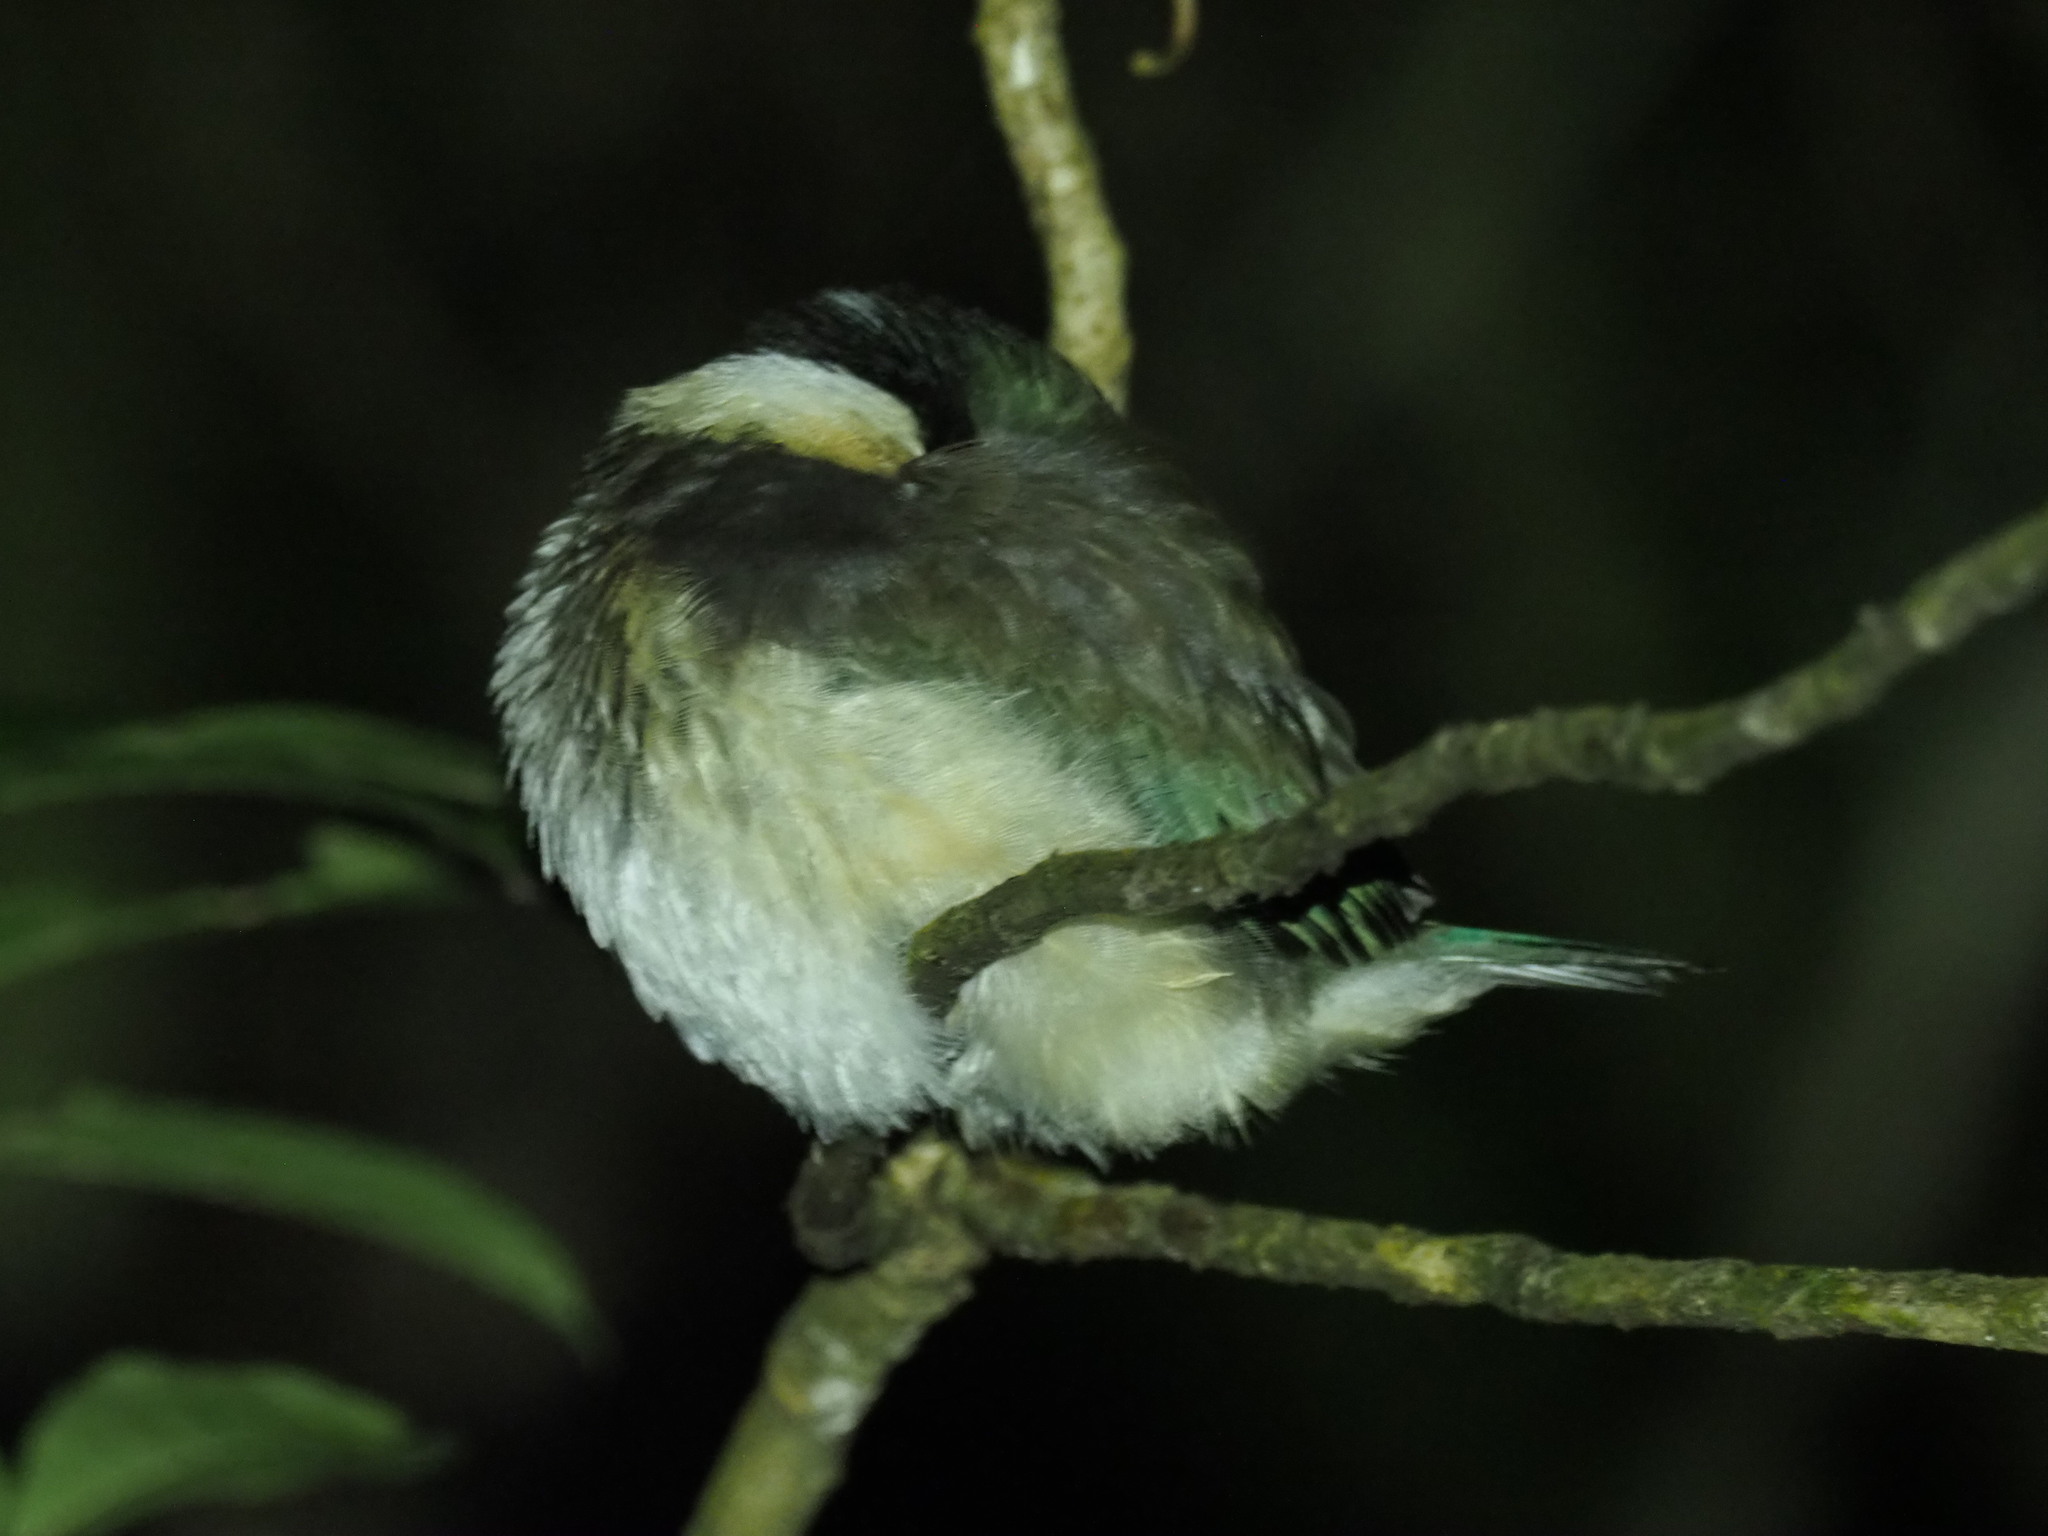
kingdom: Animalia
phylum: Chordata
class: Aves
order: Coraciiformes
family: Alcedinidae
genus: Todiramphus
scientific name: Todiramphus sanctus
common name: Sacred kingfisher
